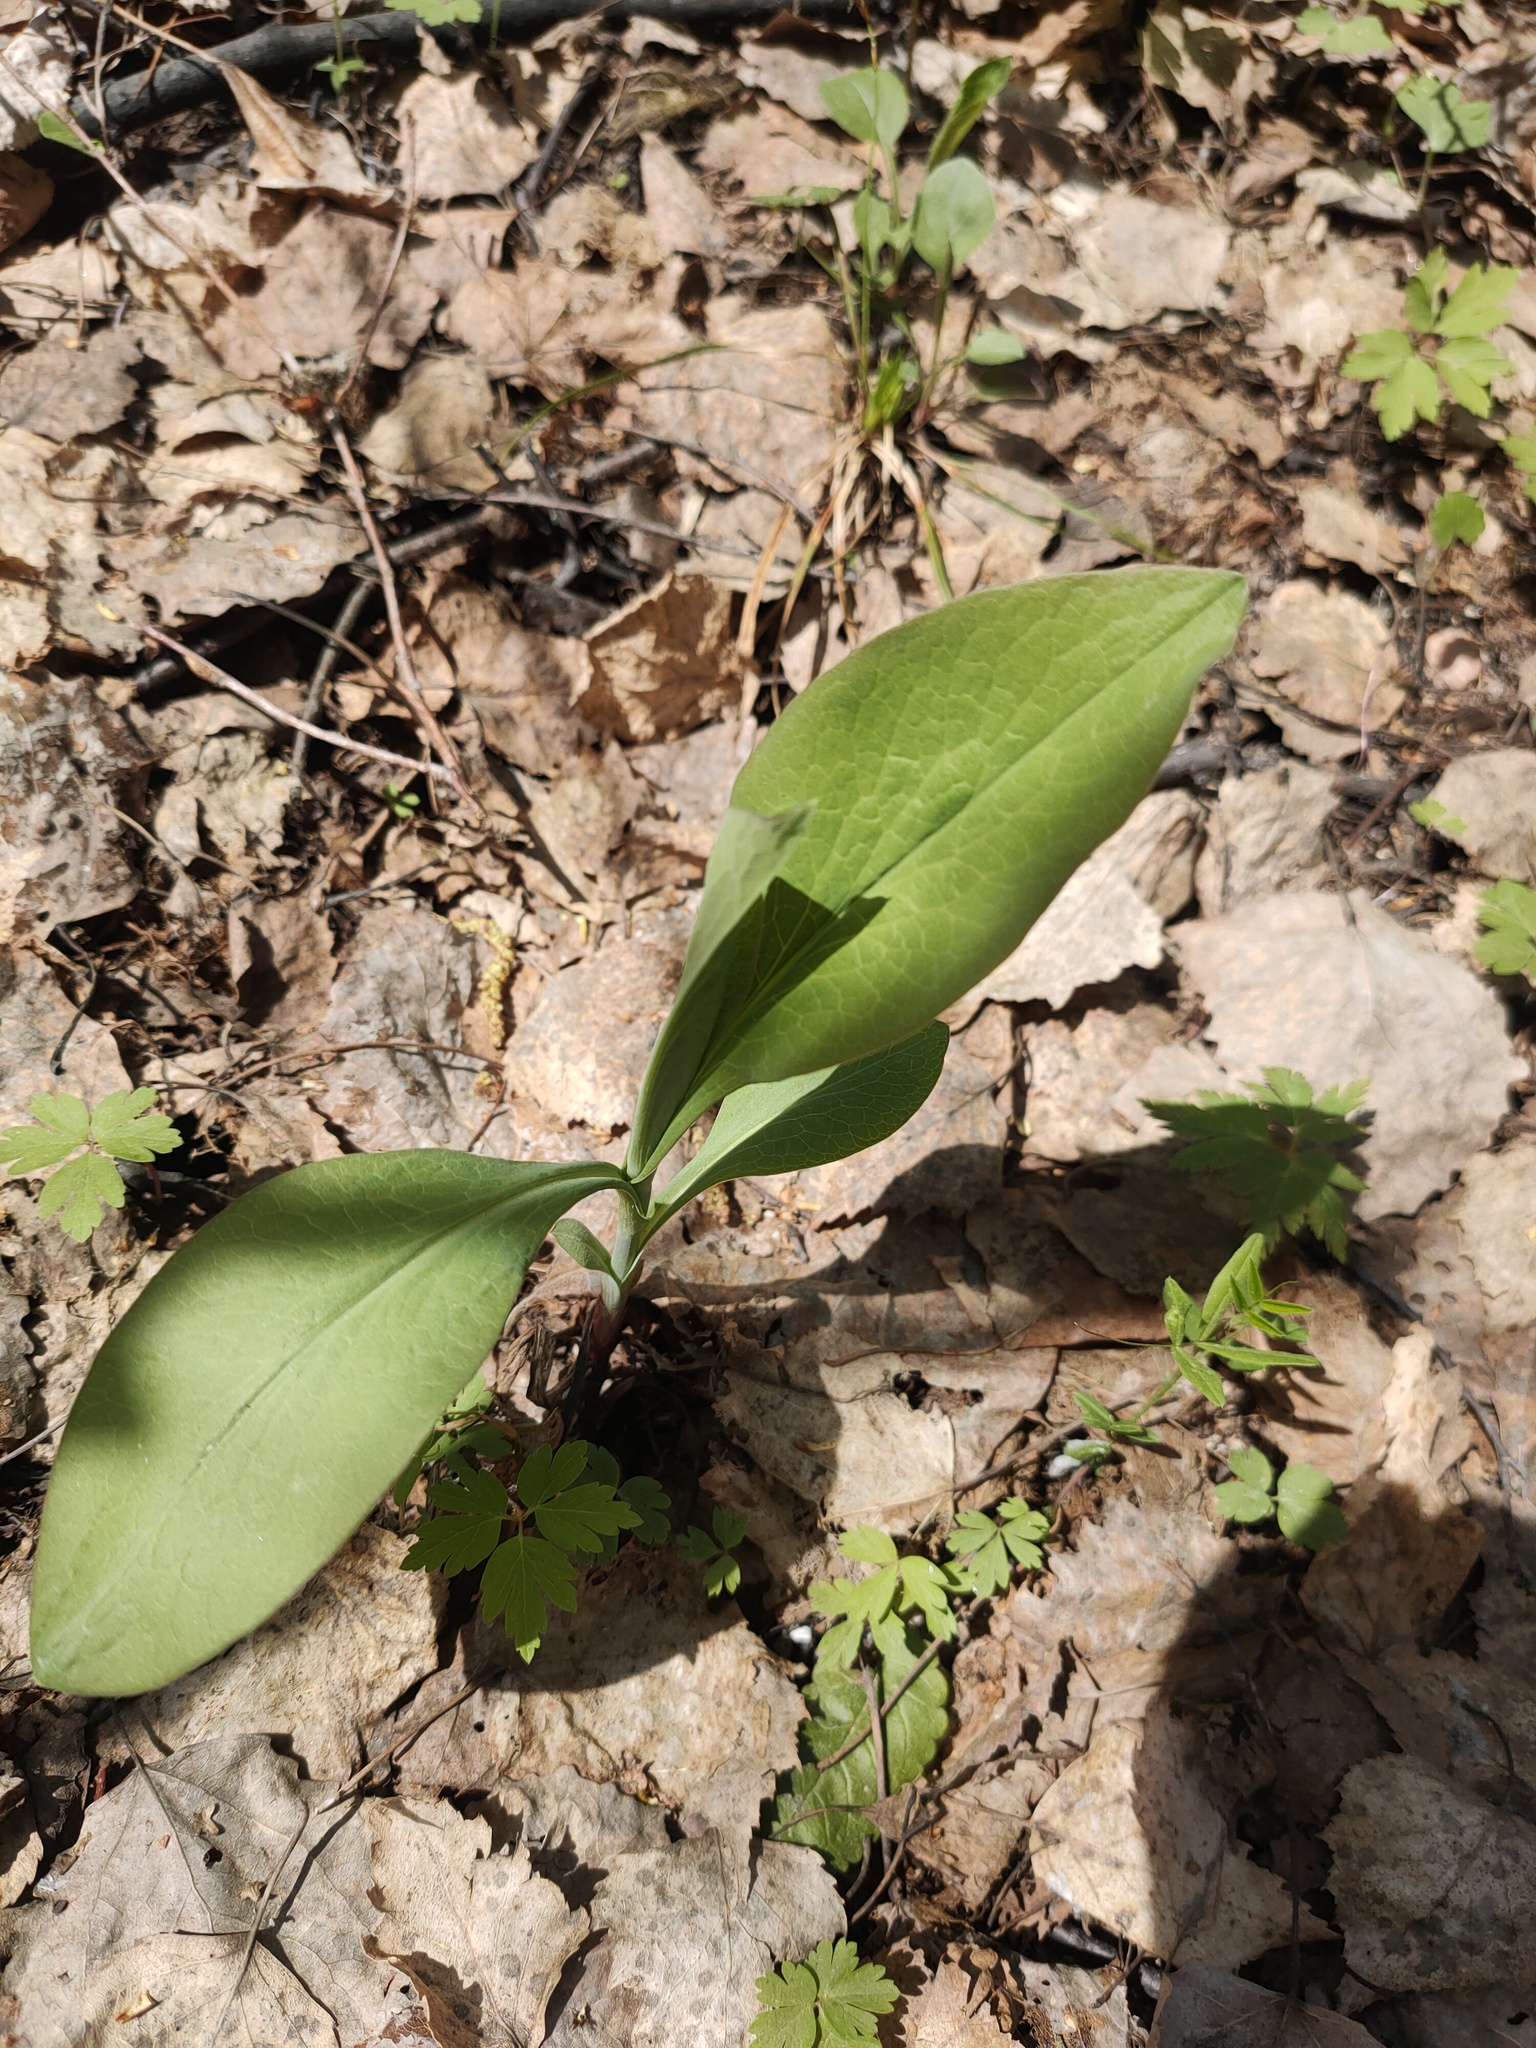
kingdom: Plantae
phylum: Tracheophyta
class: Magnoliopsida
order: Apiales
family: Apiaceae
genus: Bupleurum
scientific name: Bupleurum aureum
